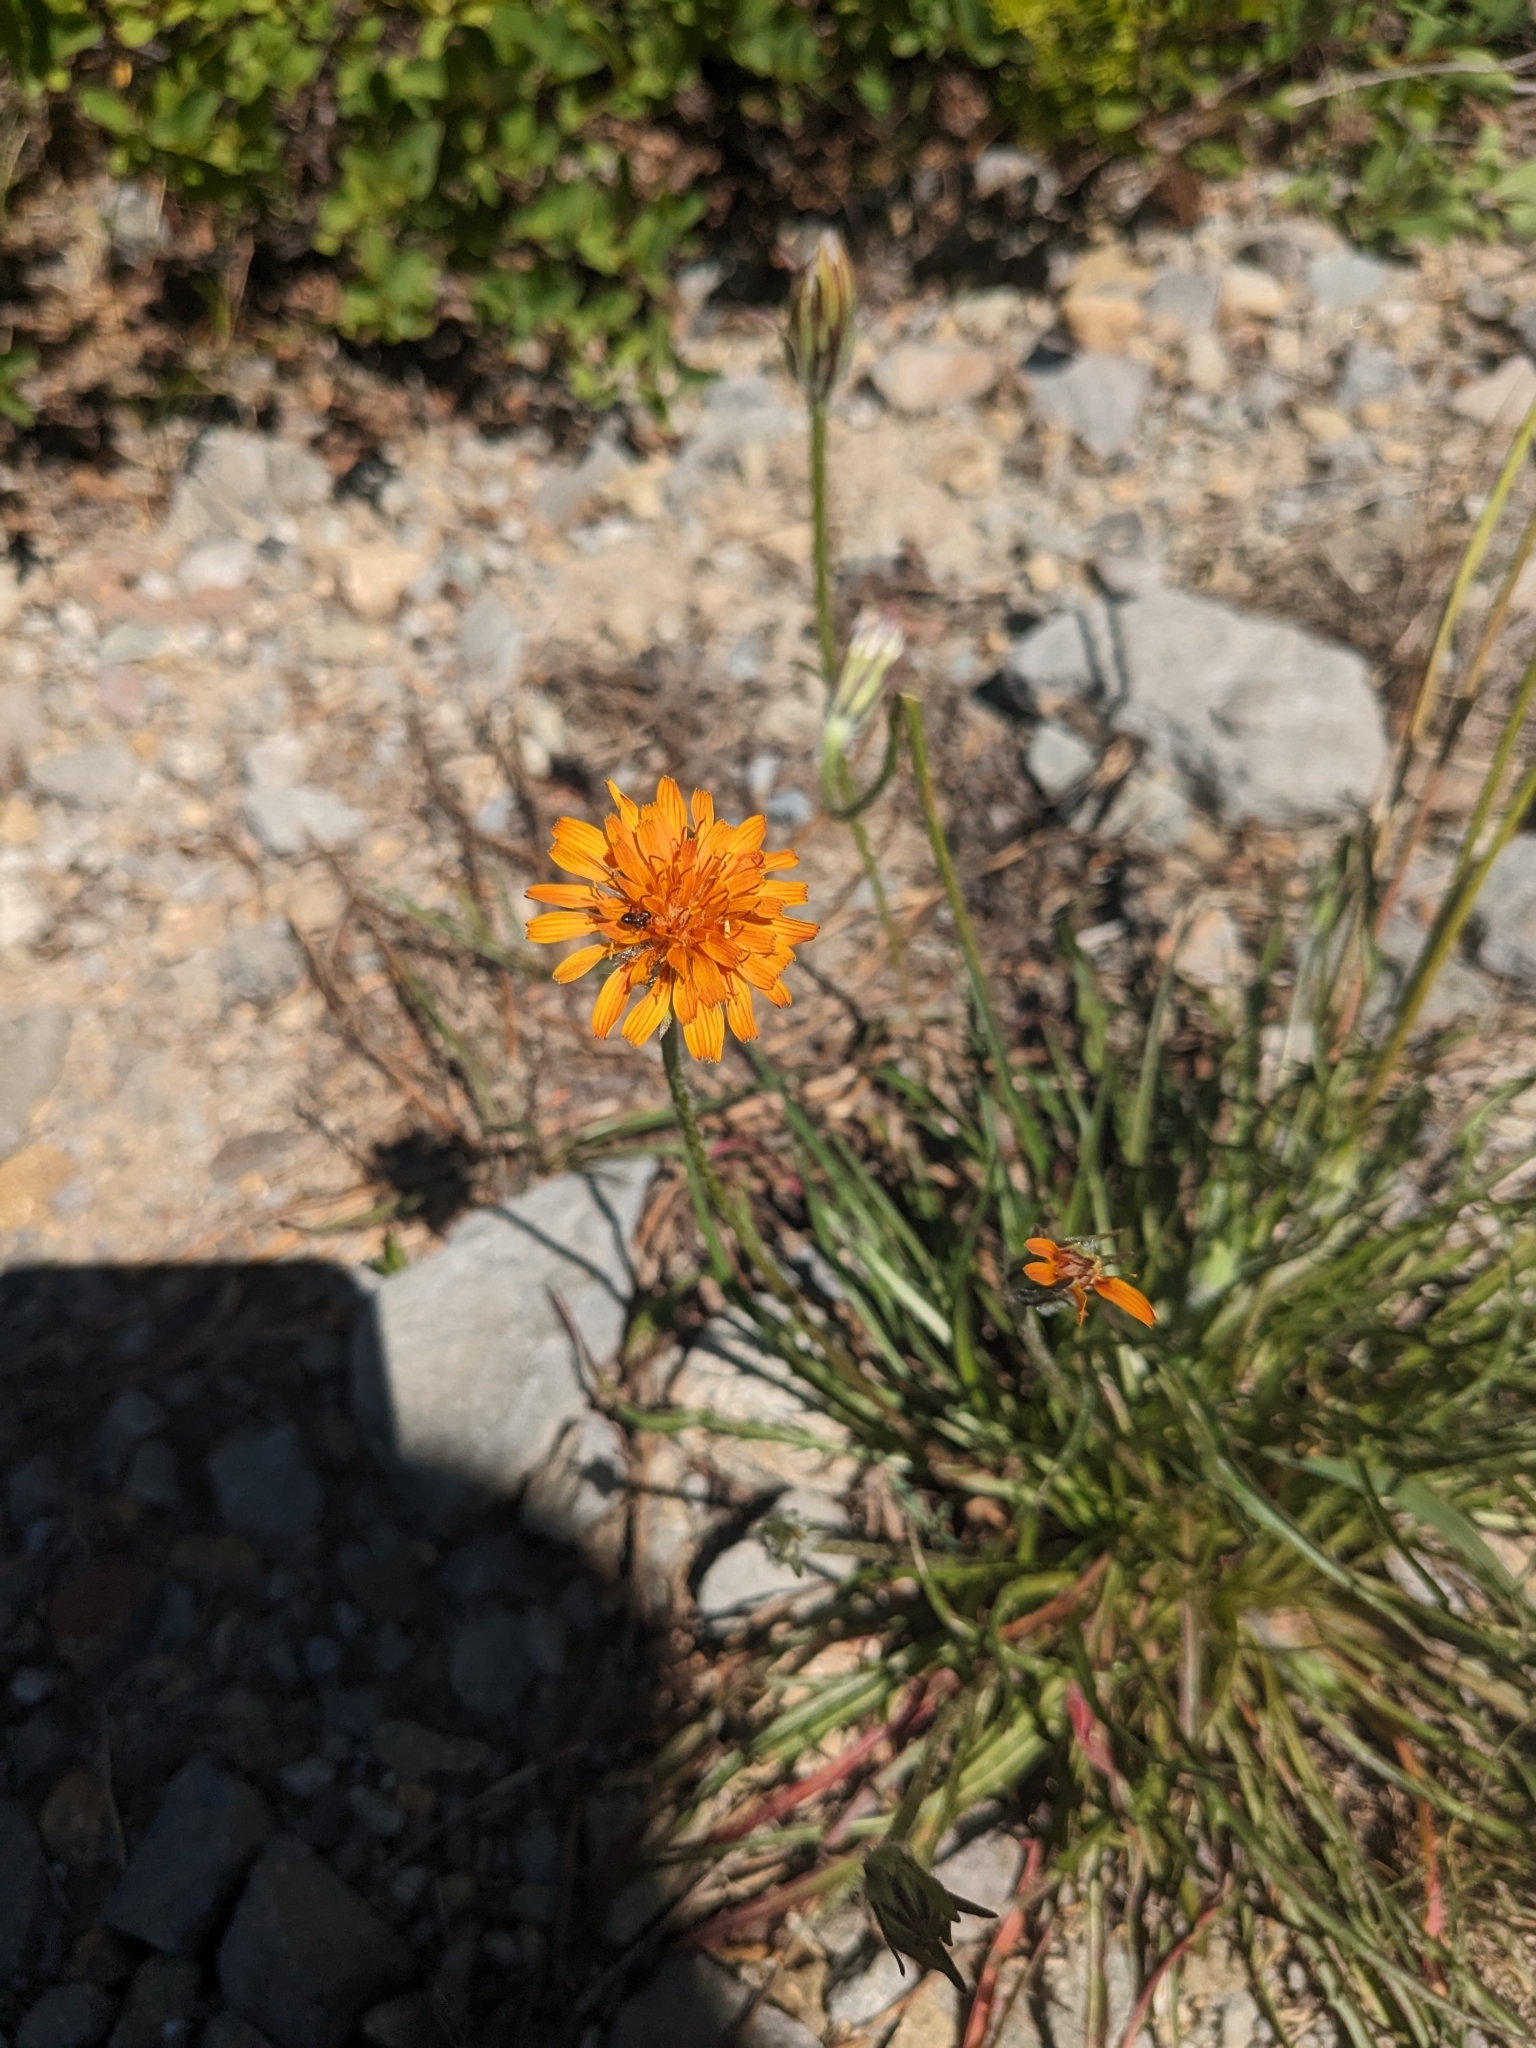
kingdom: Plantae
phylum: Tracheophyta
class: Magnoliopsida
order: Asterales
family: Asteraceae
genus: Agoseris
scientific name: Agoseris aurantiaca
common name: Mountain agoseris
